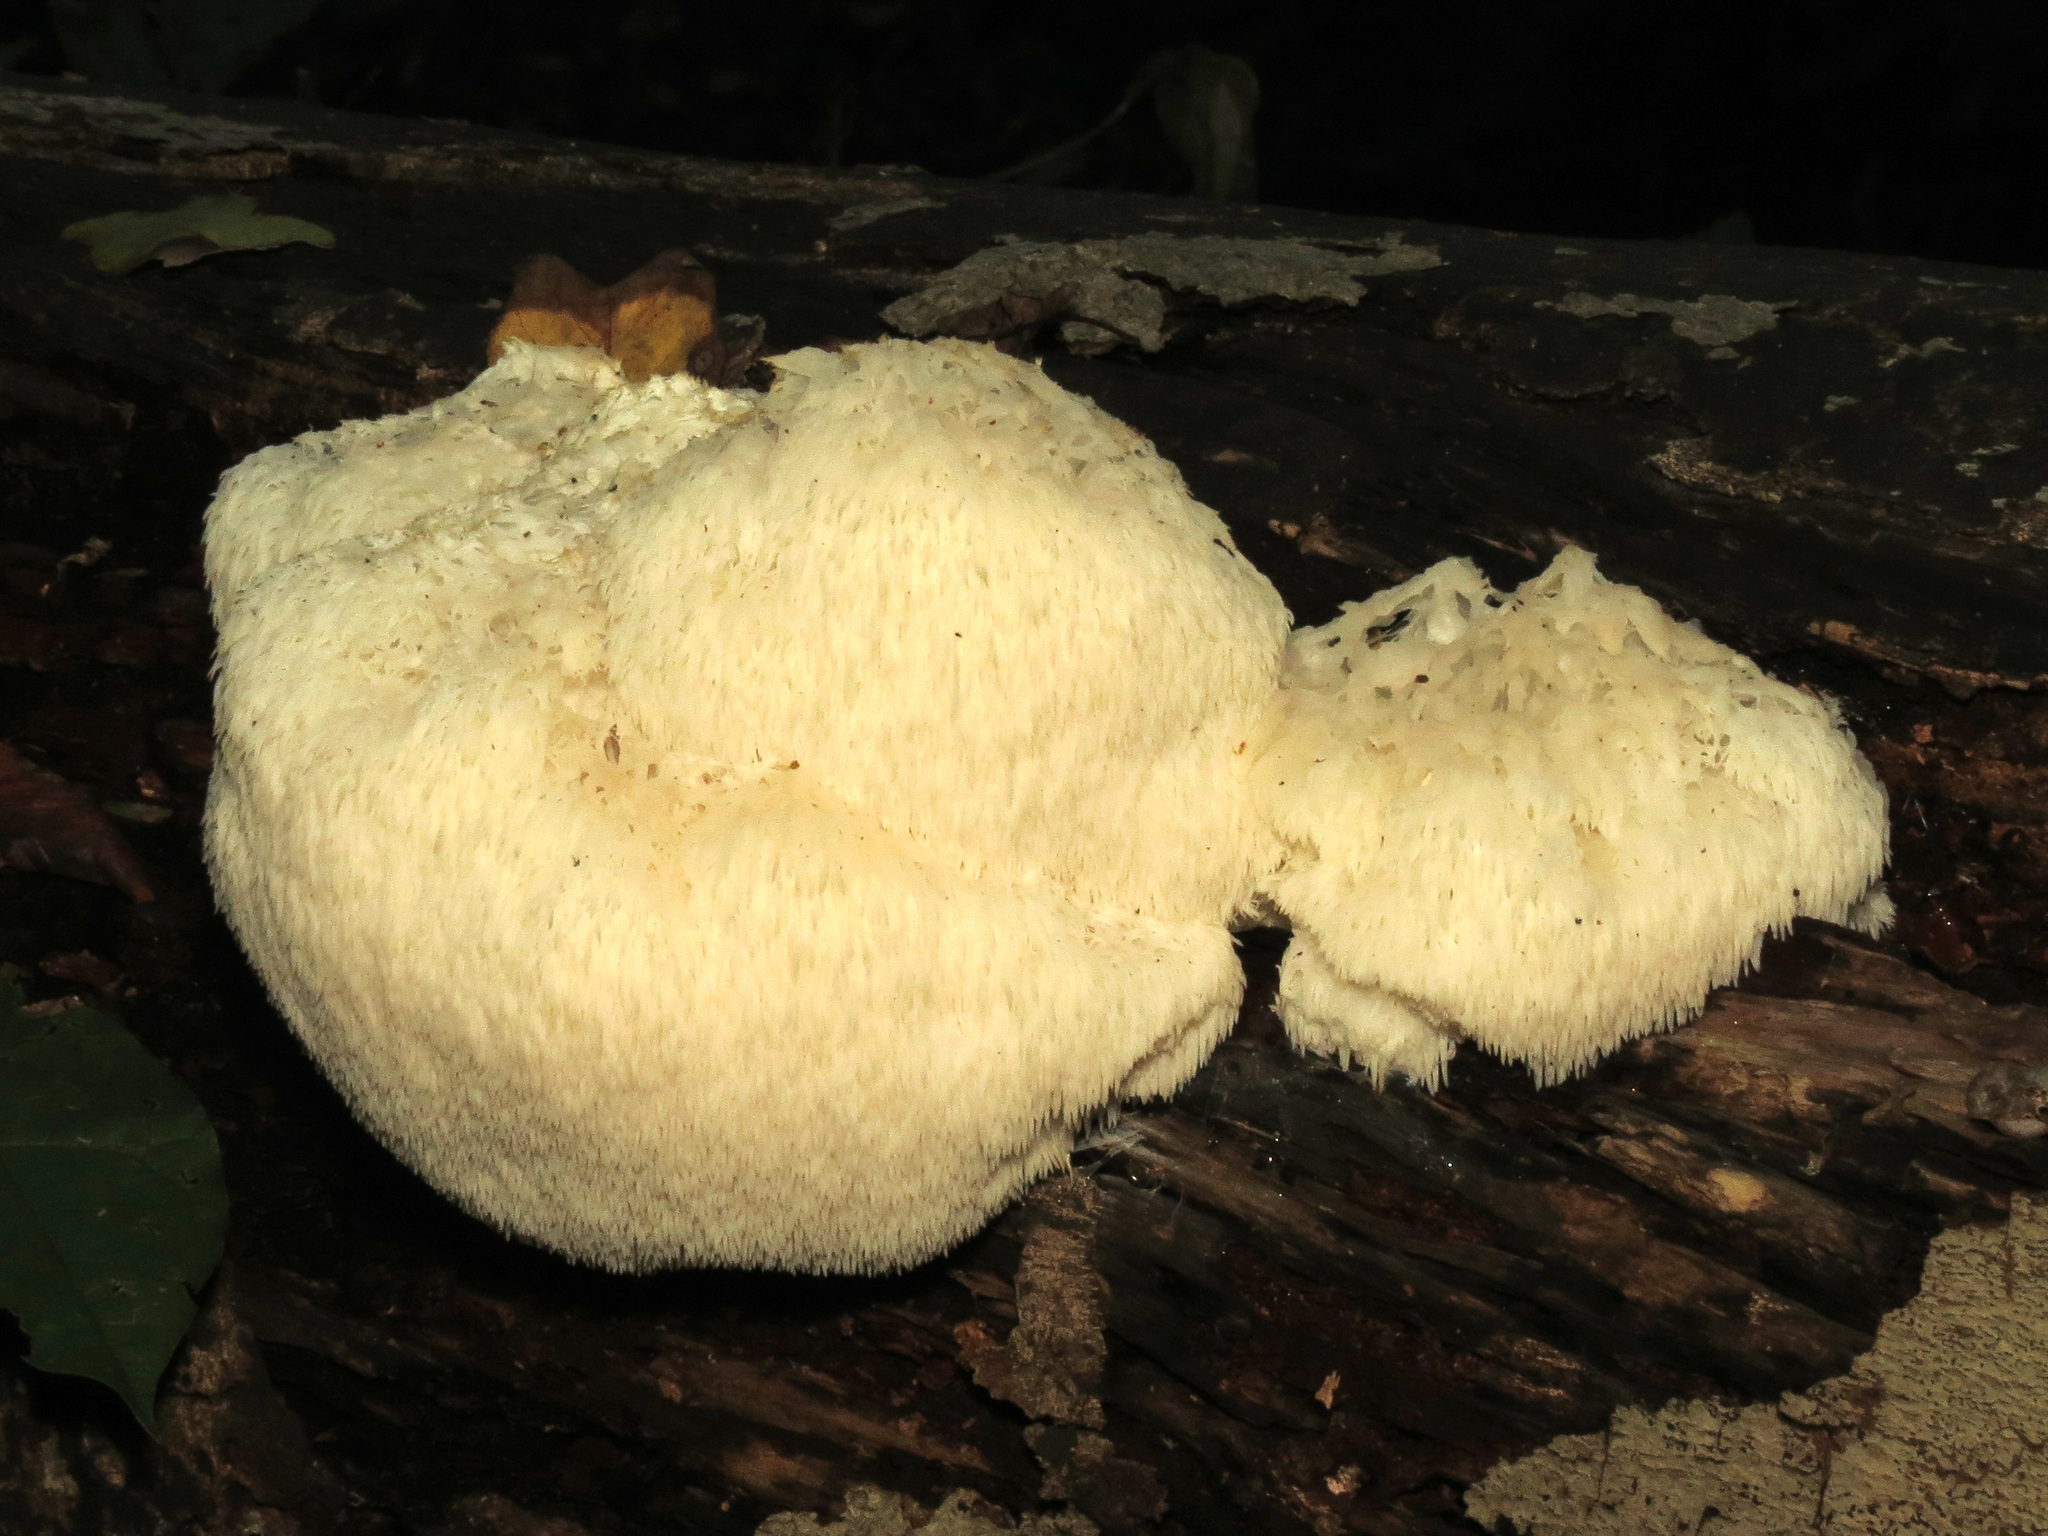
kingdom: Fungi
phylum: Basidiomycota
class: Agaricomycetes
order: Russulales
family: Hericiaceae
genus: Hericium
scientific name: Hericium erinaceus
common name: Bearded tooth
